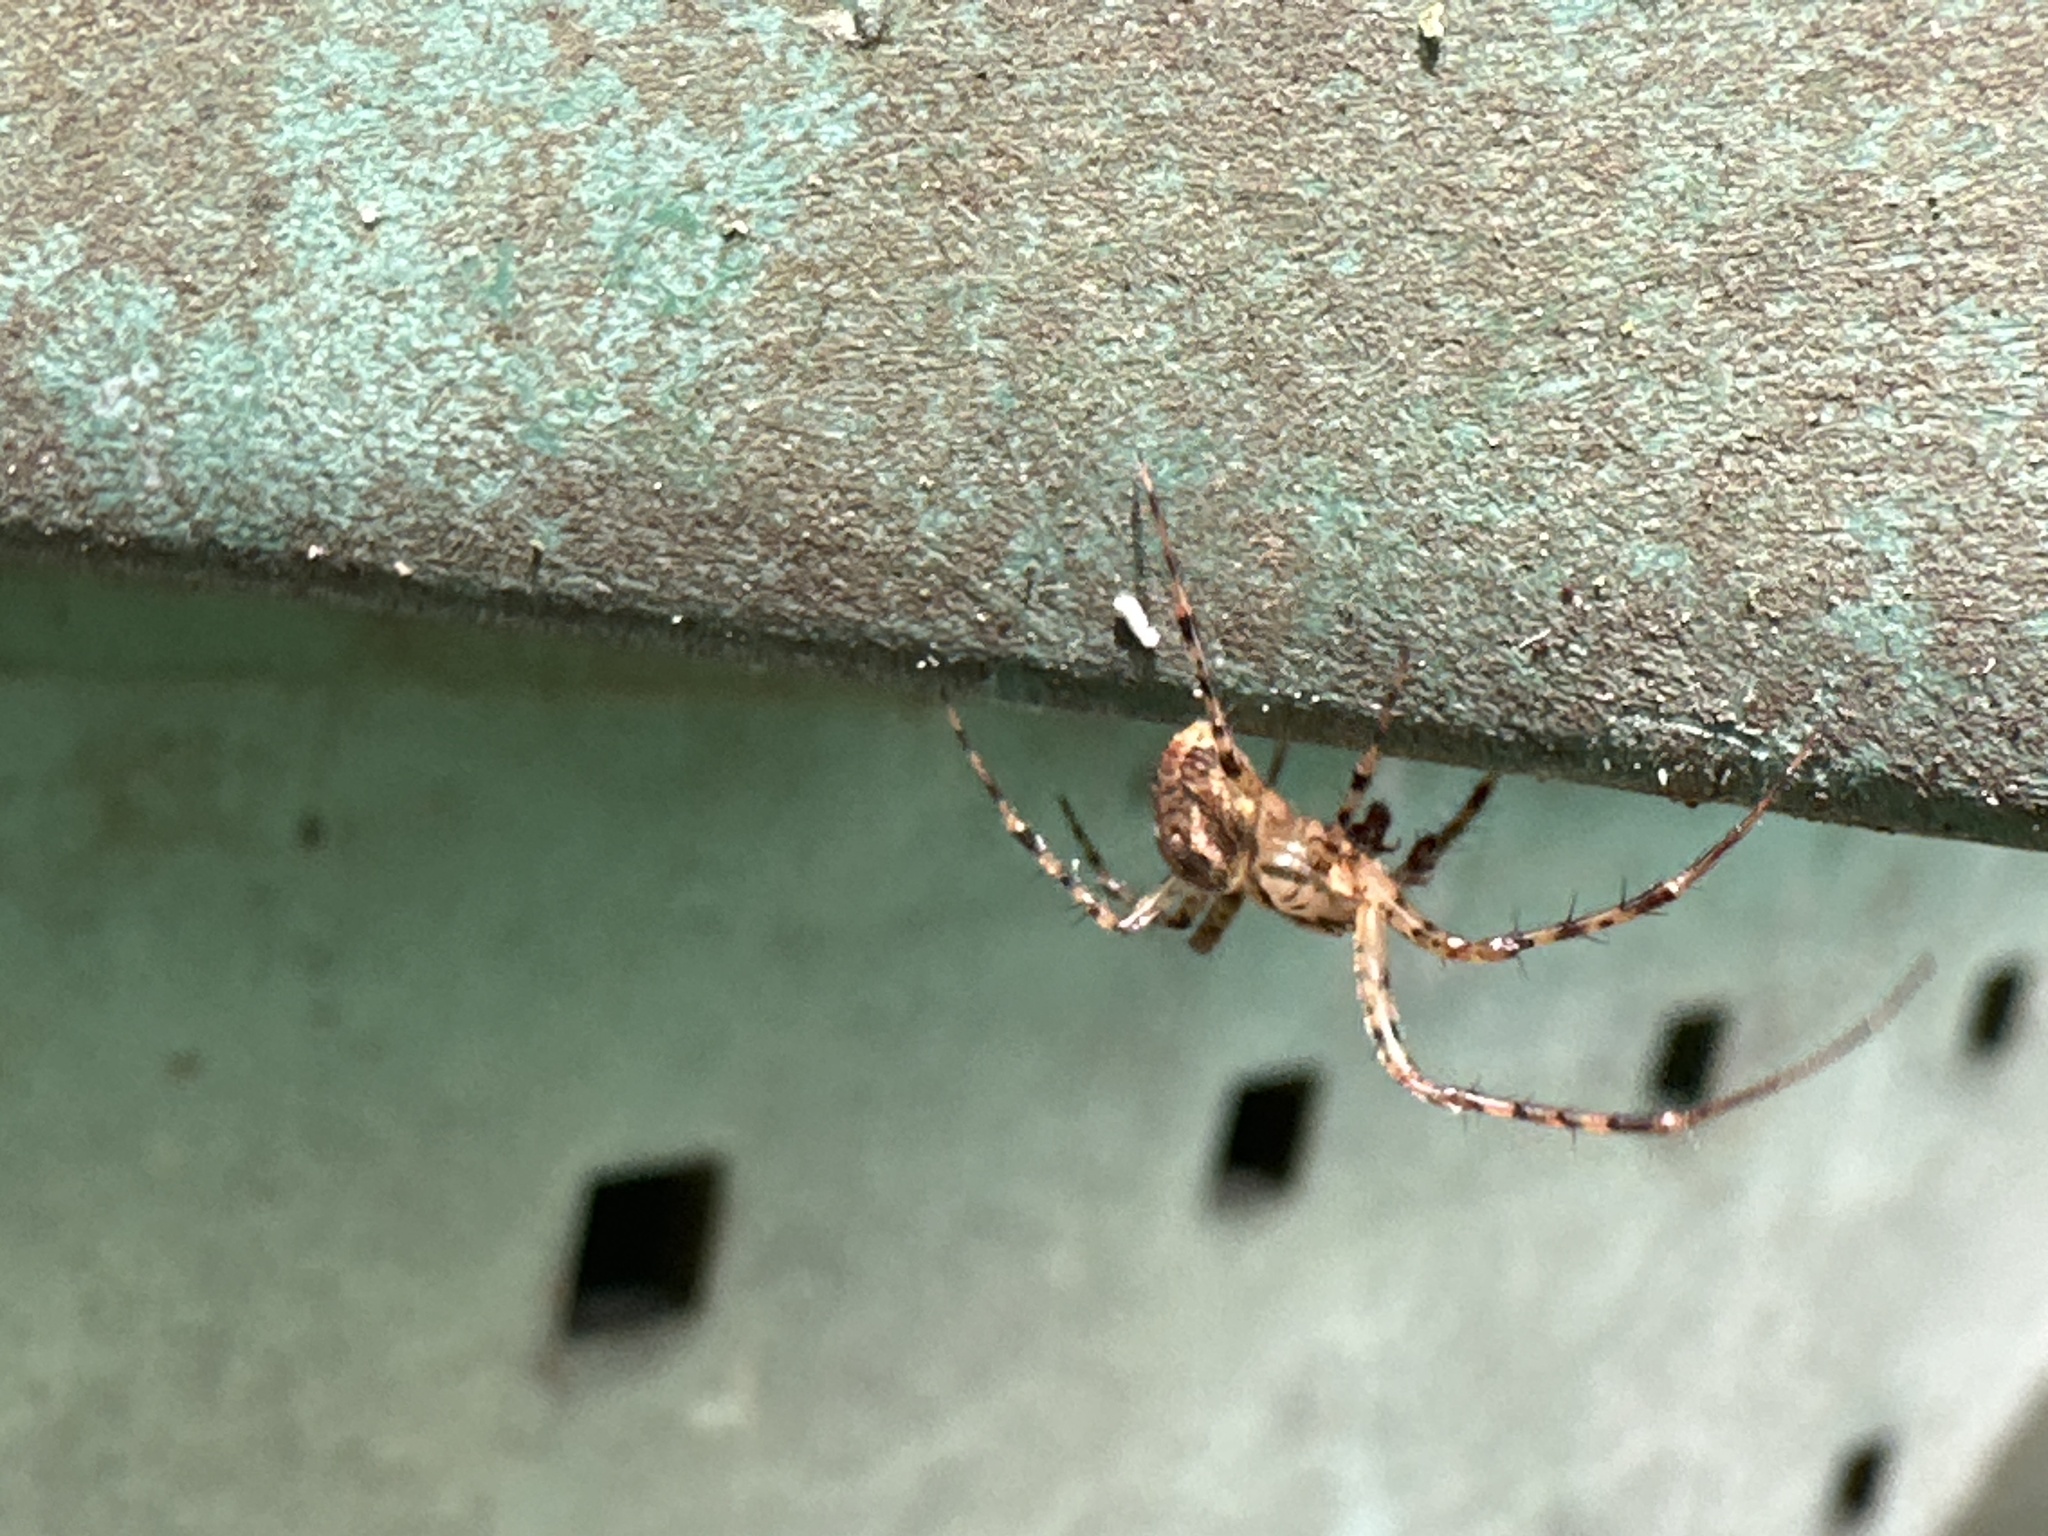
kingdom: Animalia
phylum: Arthropoda
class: Arachnida
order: Araneae
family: Tetragnathidae
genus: Metellina
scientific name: Metellina merianae
